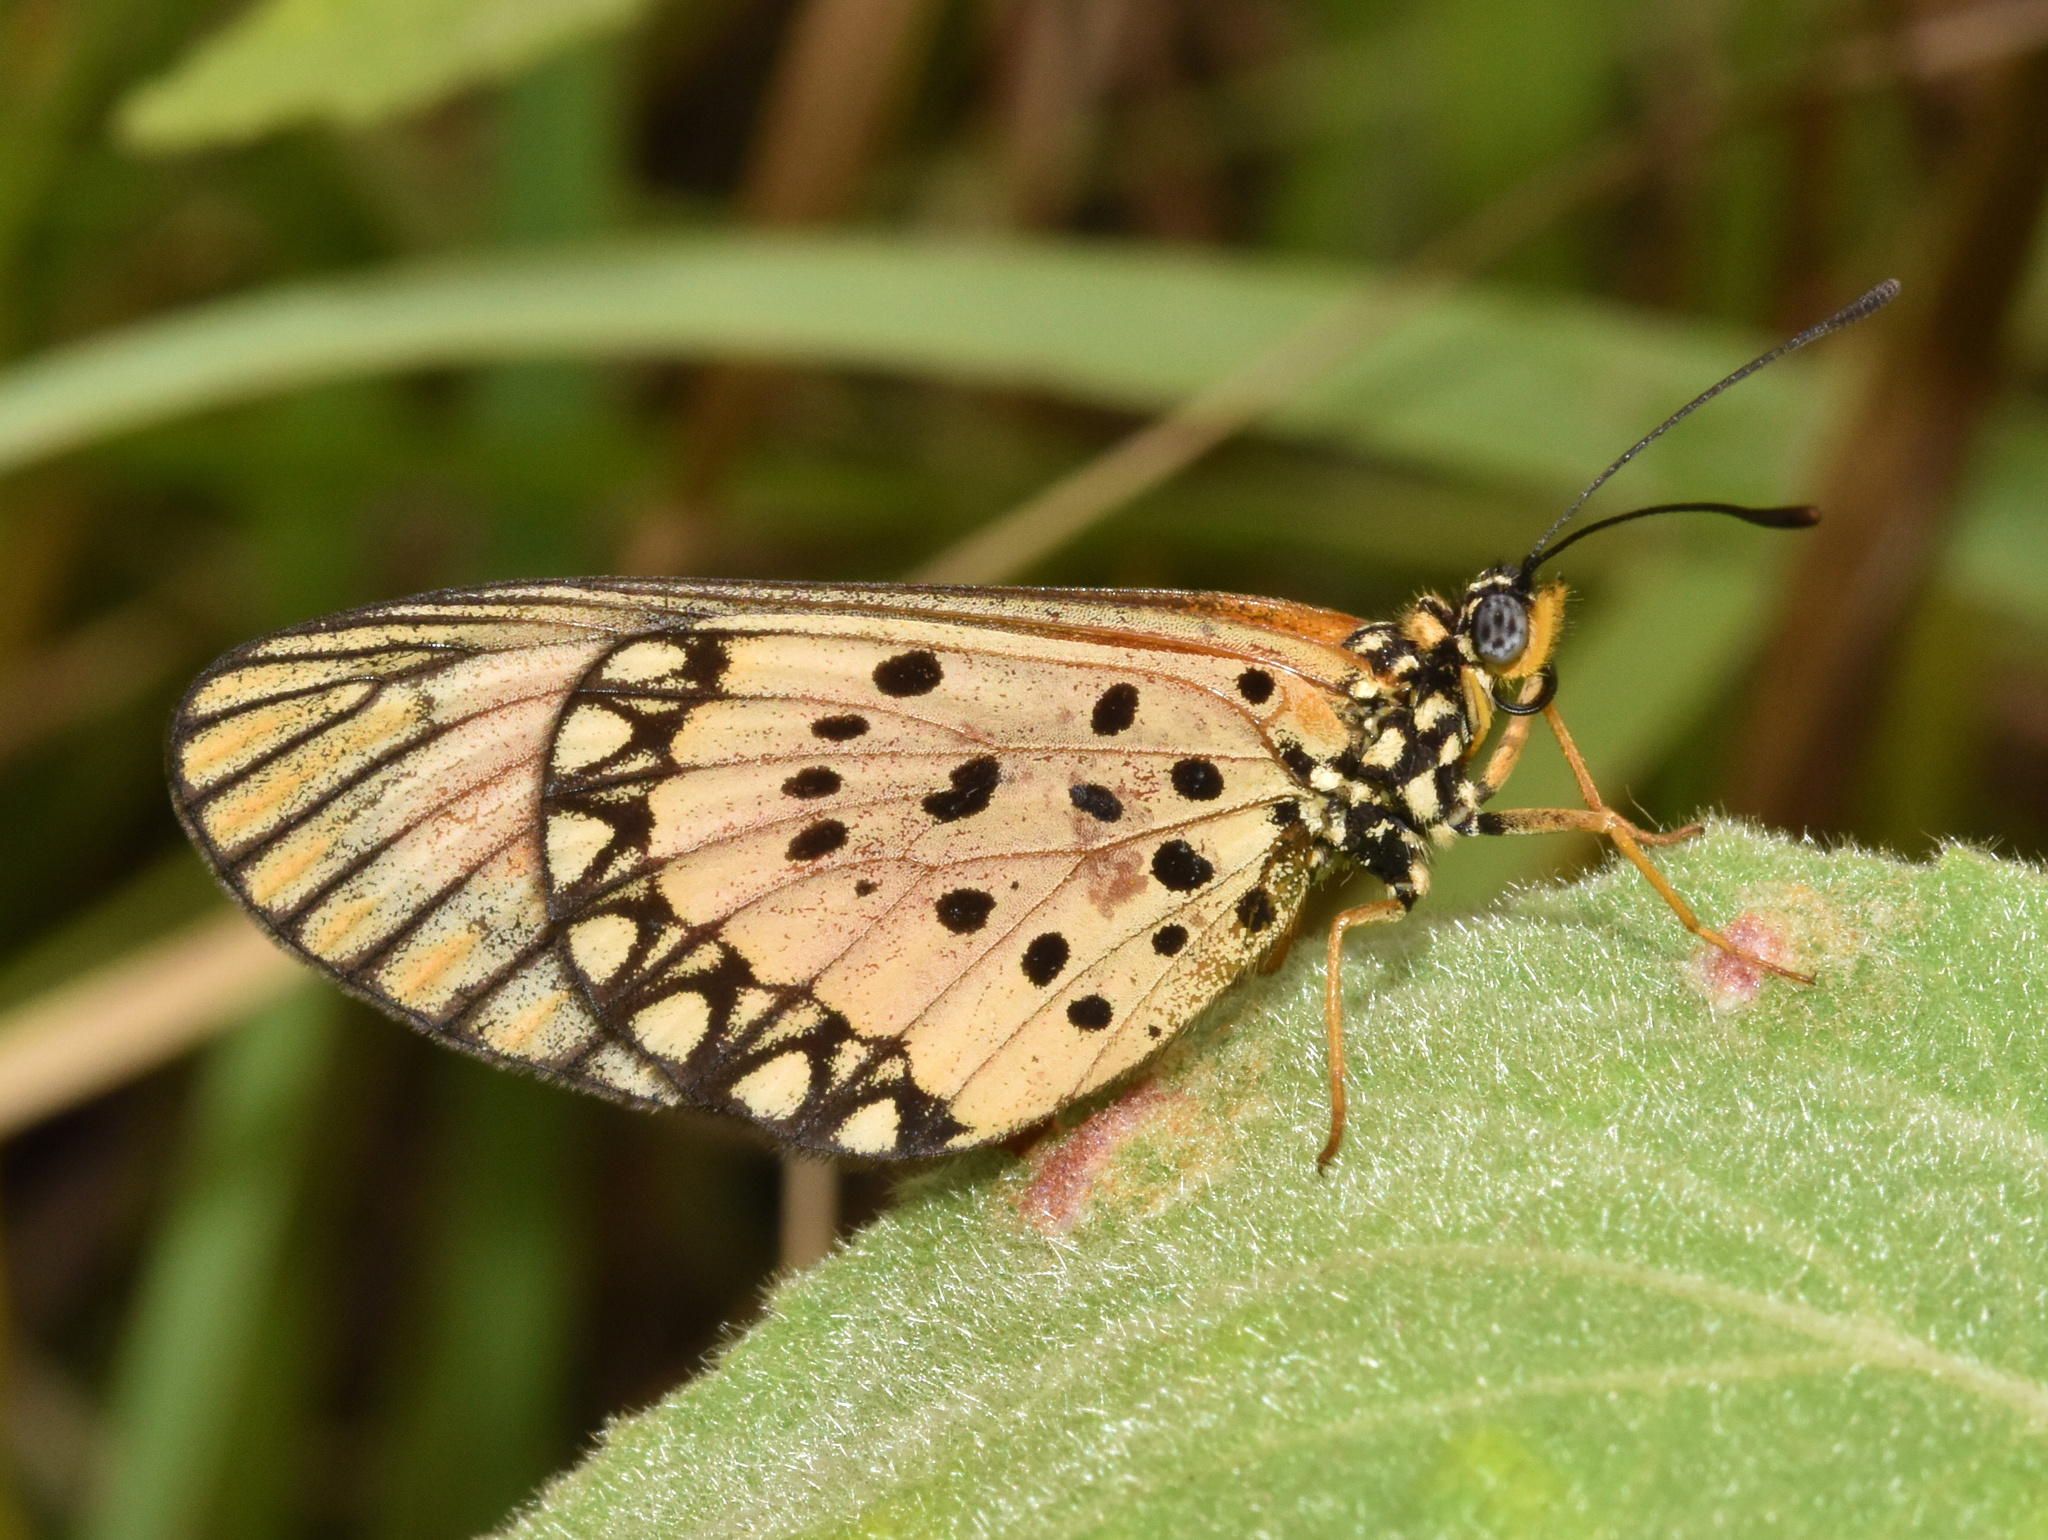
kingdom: Animalia
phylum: Arthropoda
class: Insecta
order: Lepidoptera
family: Nymphalidae
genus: Acraea
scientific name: Acraea Telchinia serena
